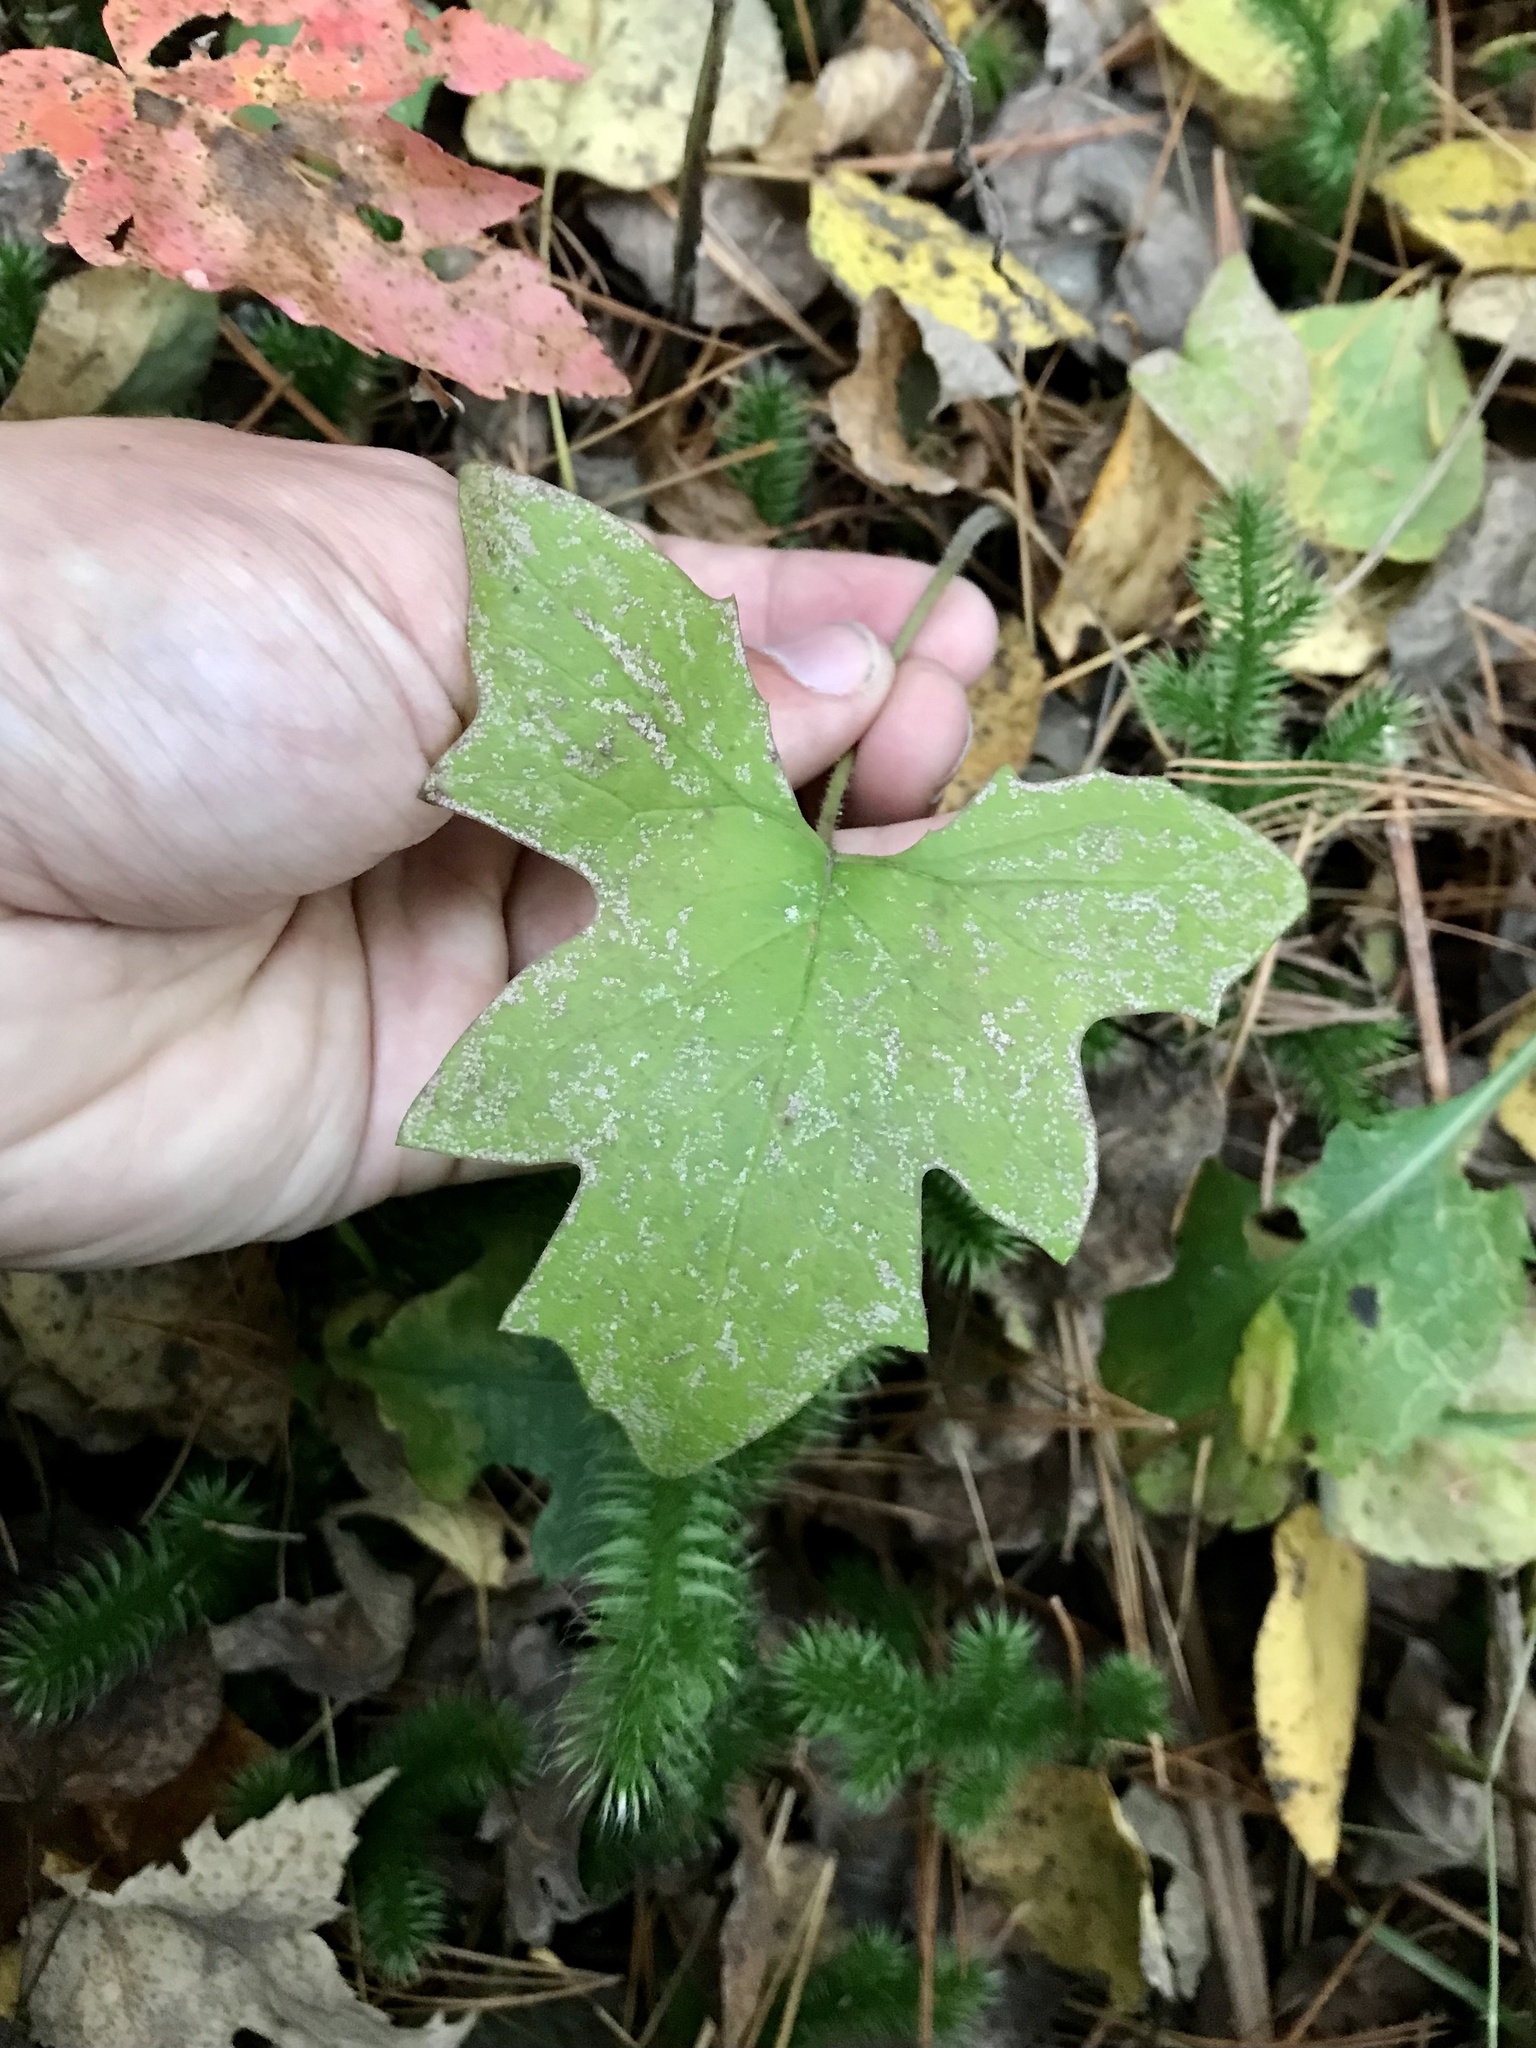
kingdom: Plantae
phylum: Tracheophyta
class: Magnoliopsida
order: Asterales
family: Asteraceae
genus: Petasites
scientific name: Petasites frigidus
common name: Arctic butterbur
